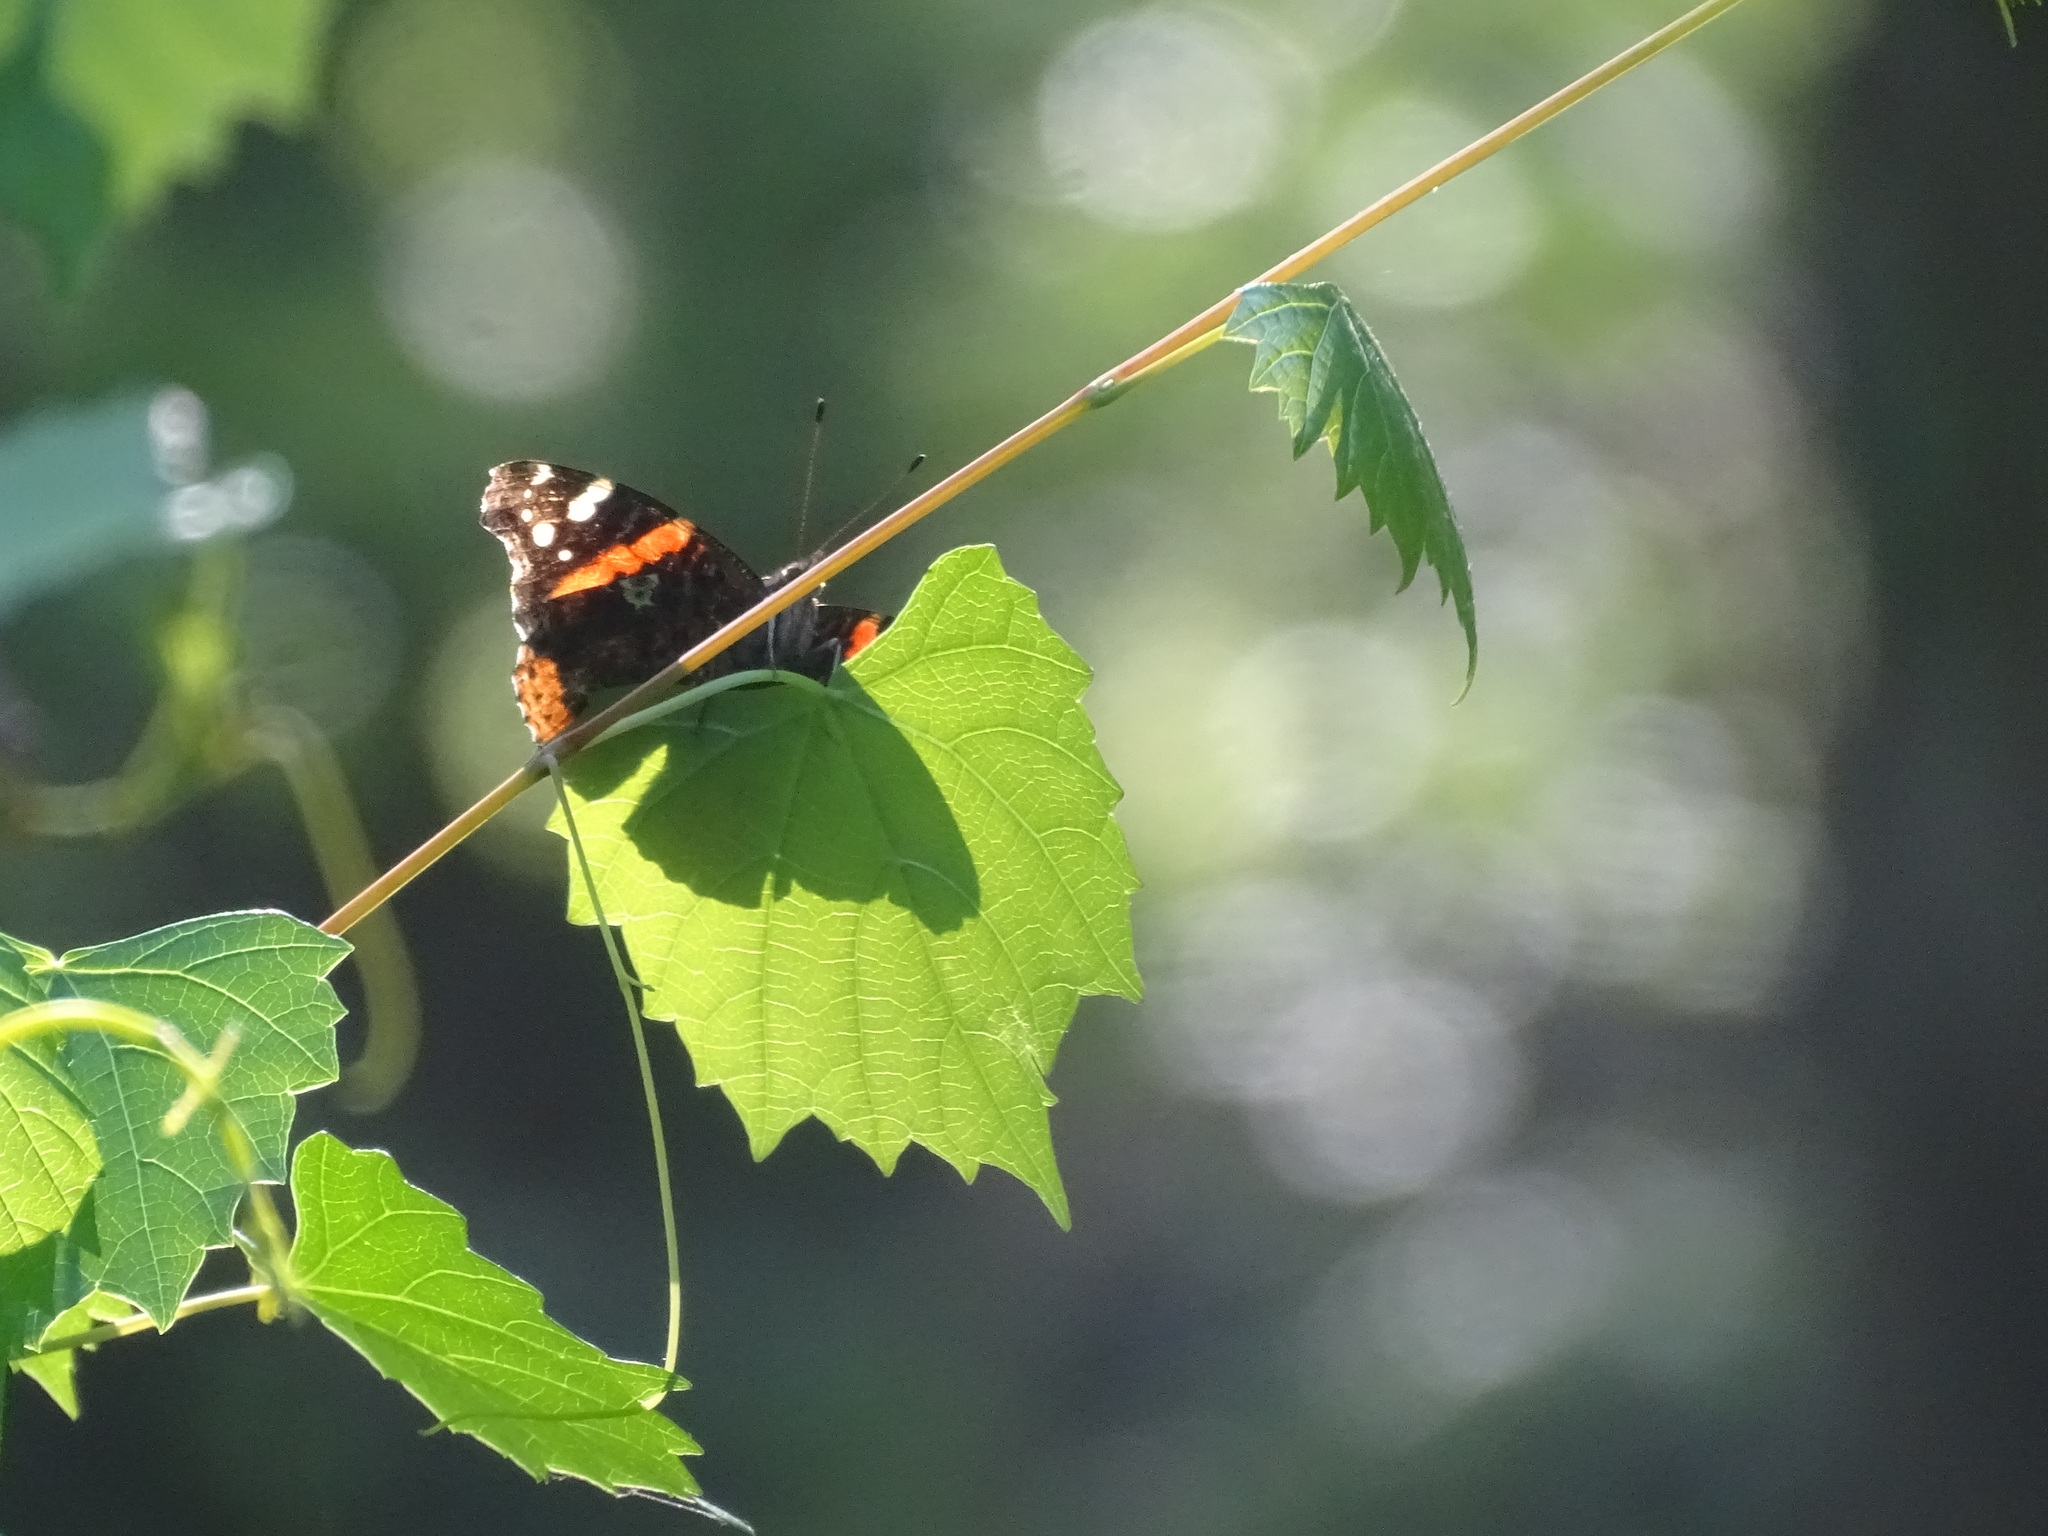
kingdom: Animalia
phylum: Arthropoda
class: Insecta
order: Lepidoptera
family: Nymphalidae
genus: Vanessa
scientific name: Vanessa atalanta
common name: Red admiral
